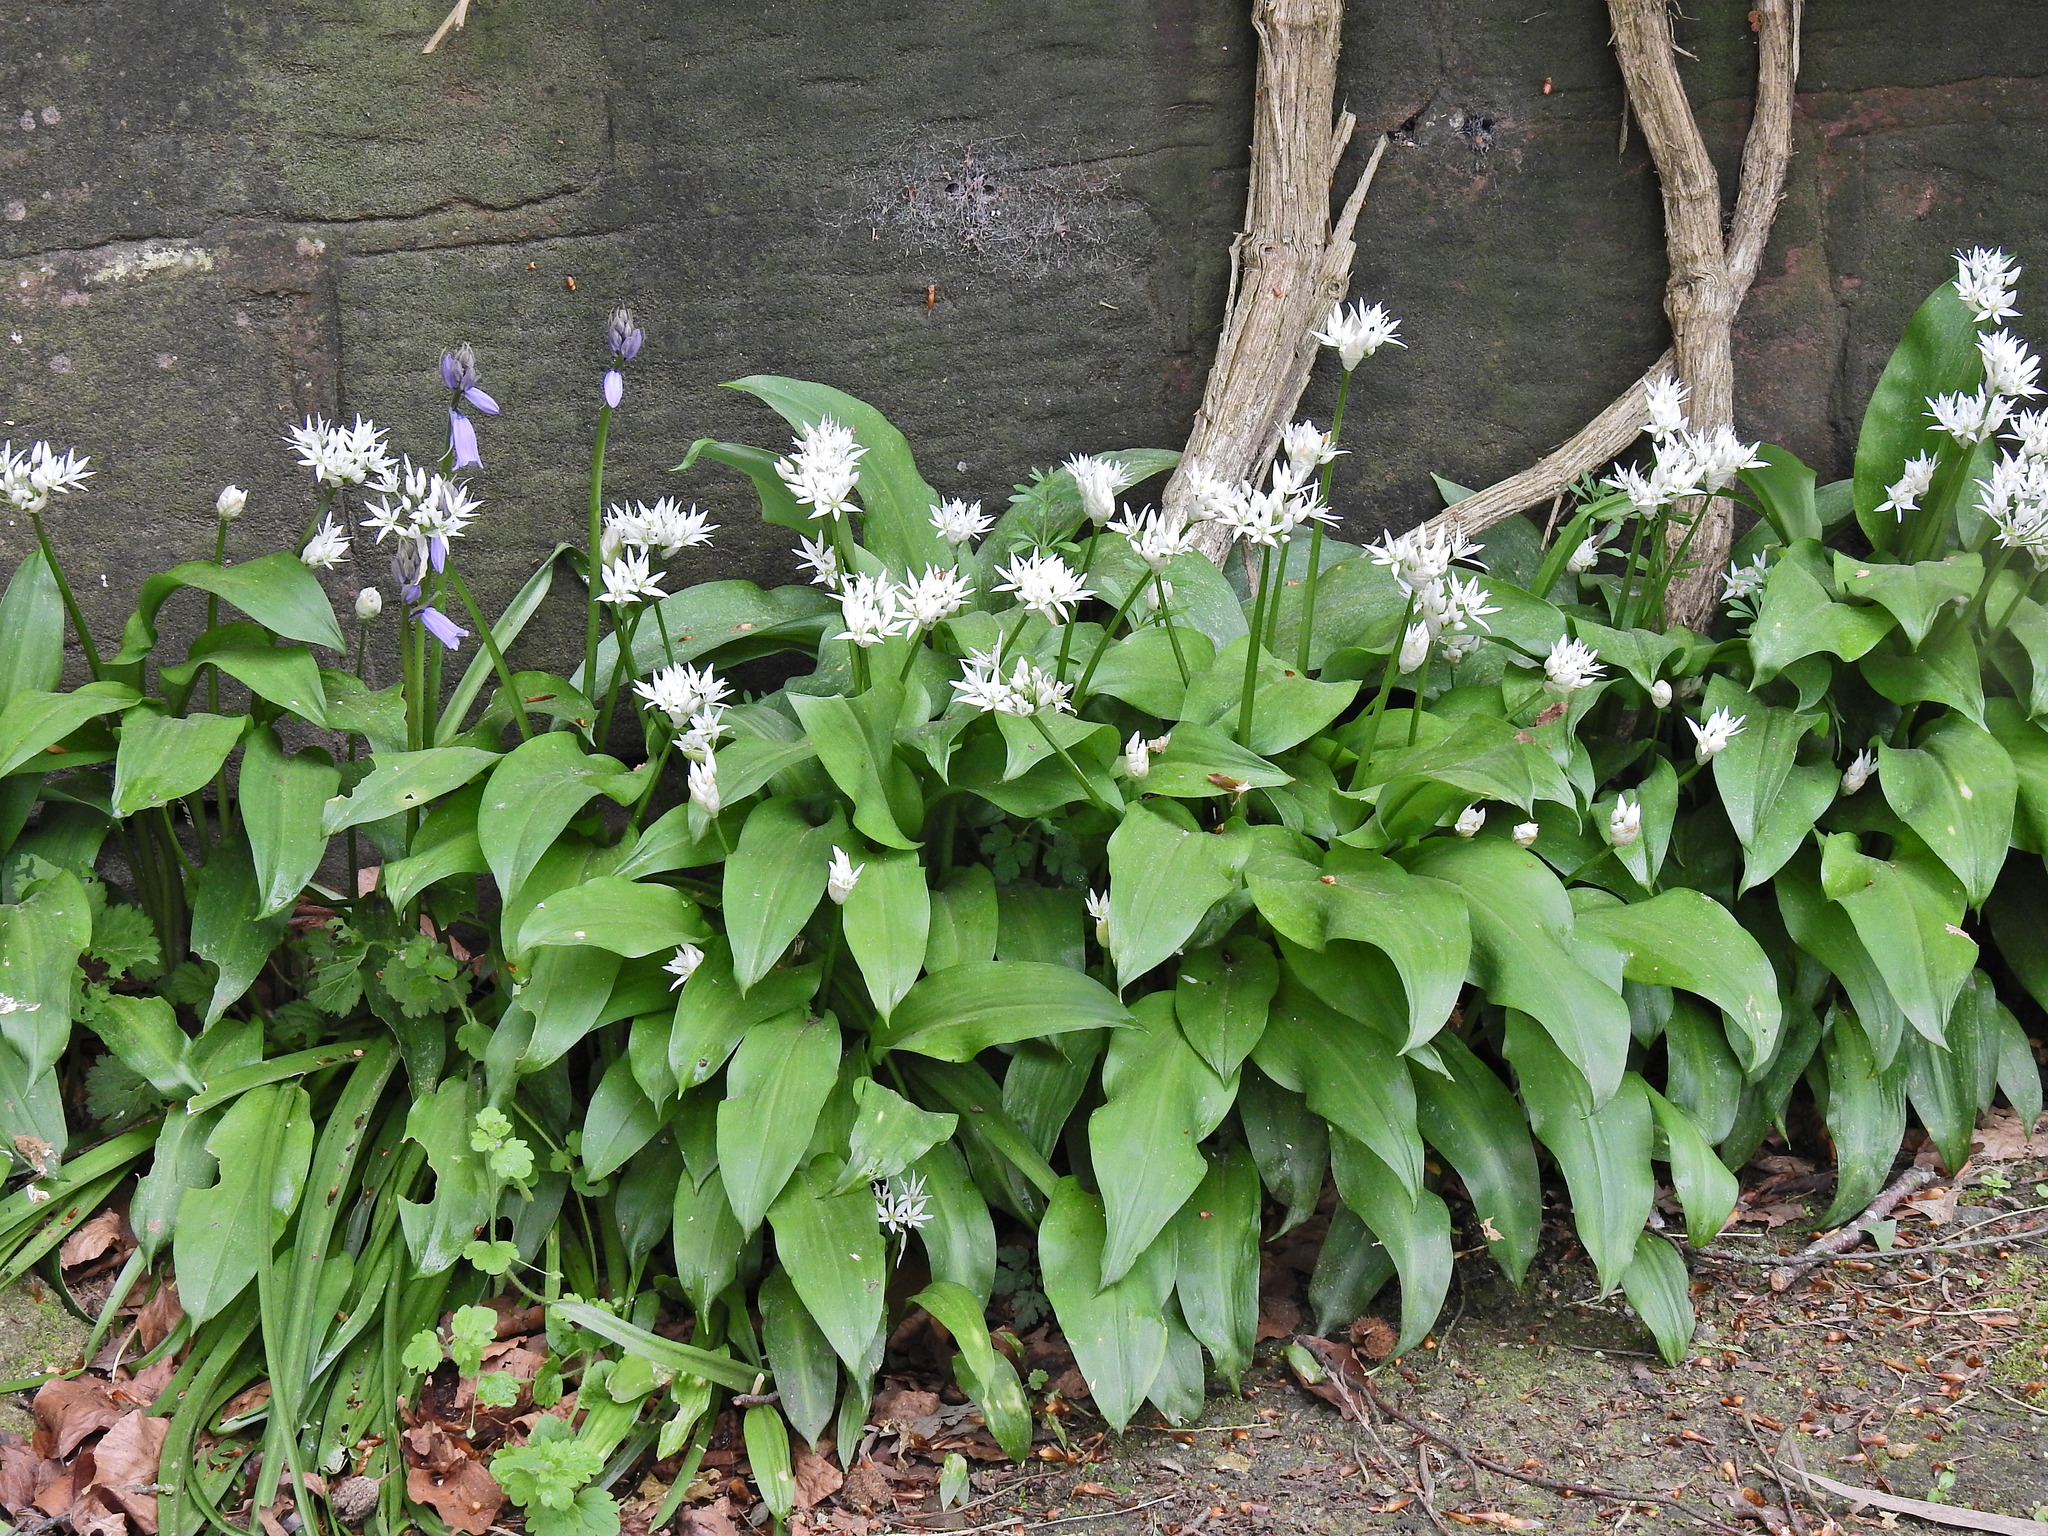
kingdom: Plantae
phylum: Tracheophyta
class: Liliopsida
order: Asparagales
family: Amaryllidaceae
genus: Allium
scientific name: Allium ursinum
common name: Ramsons
